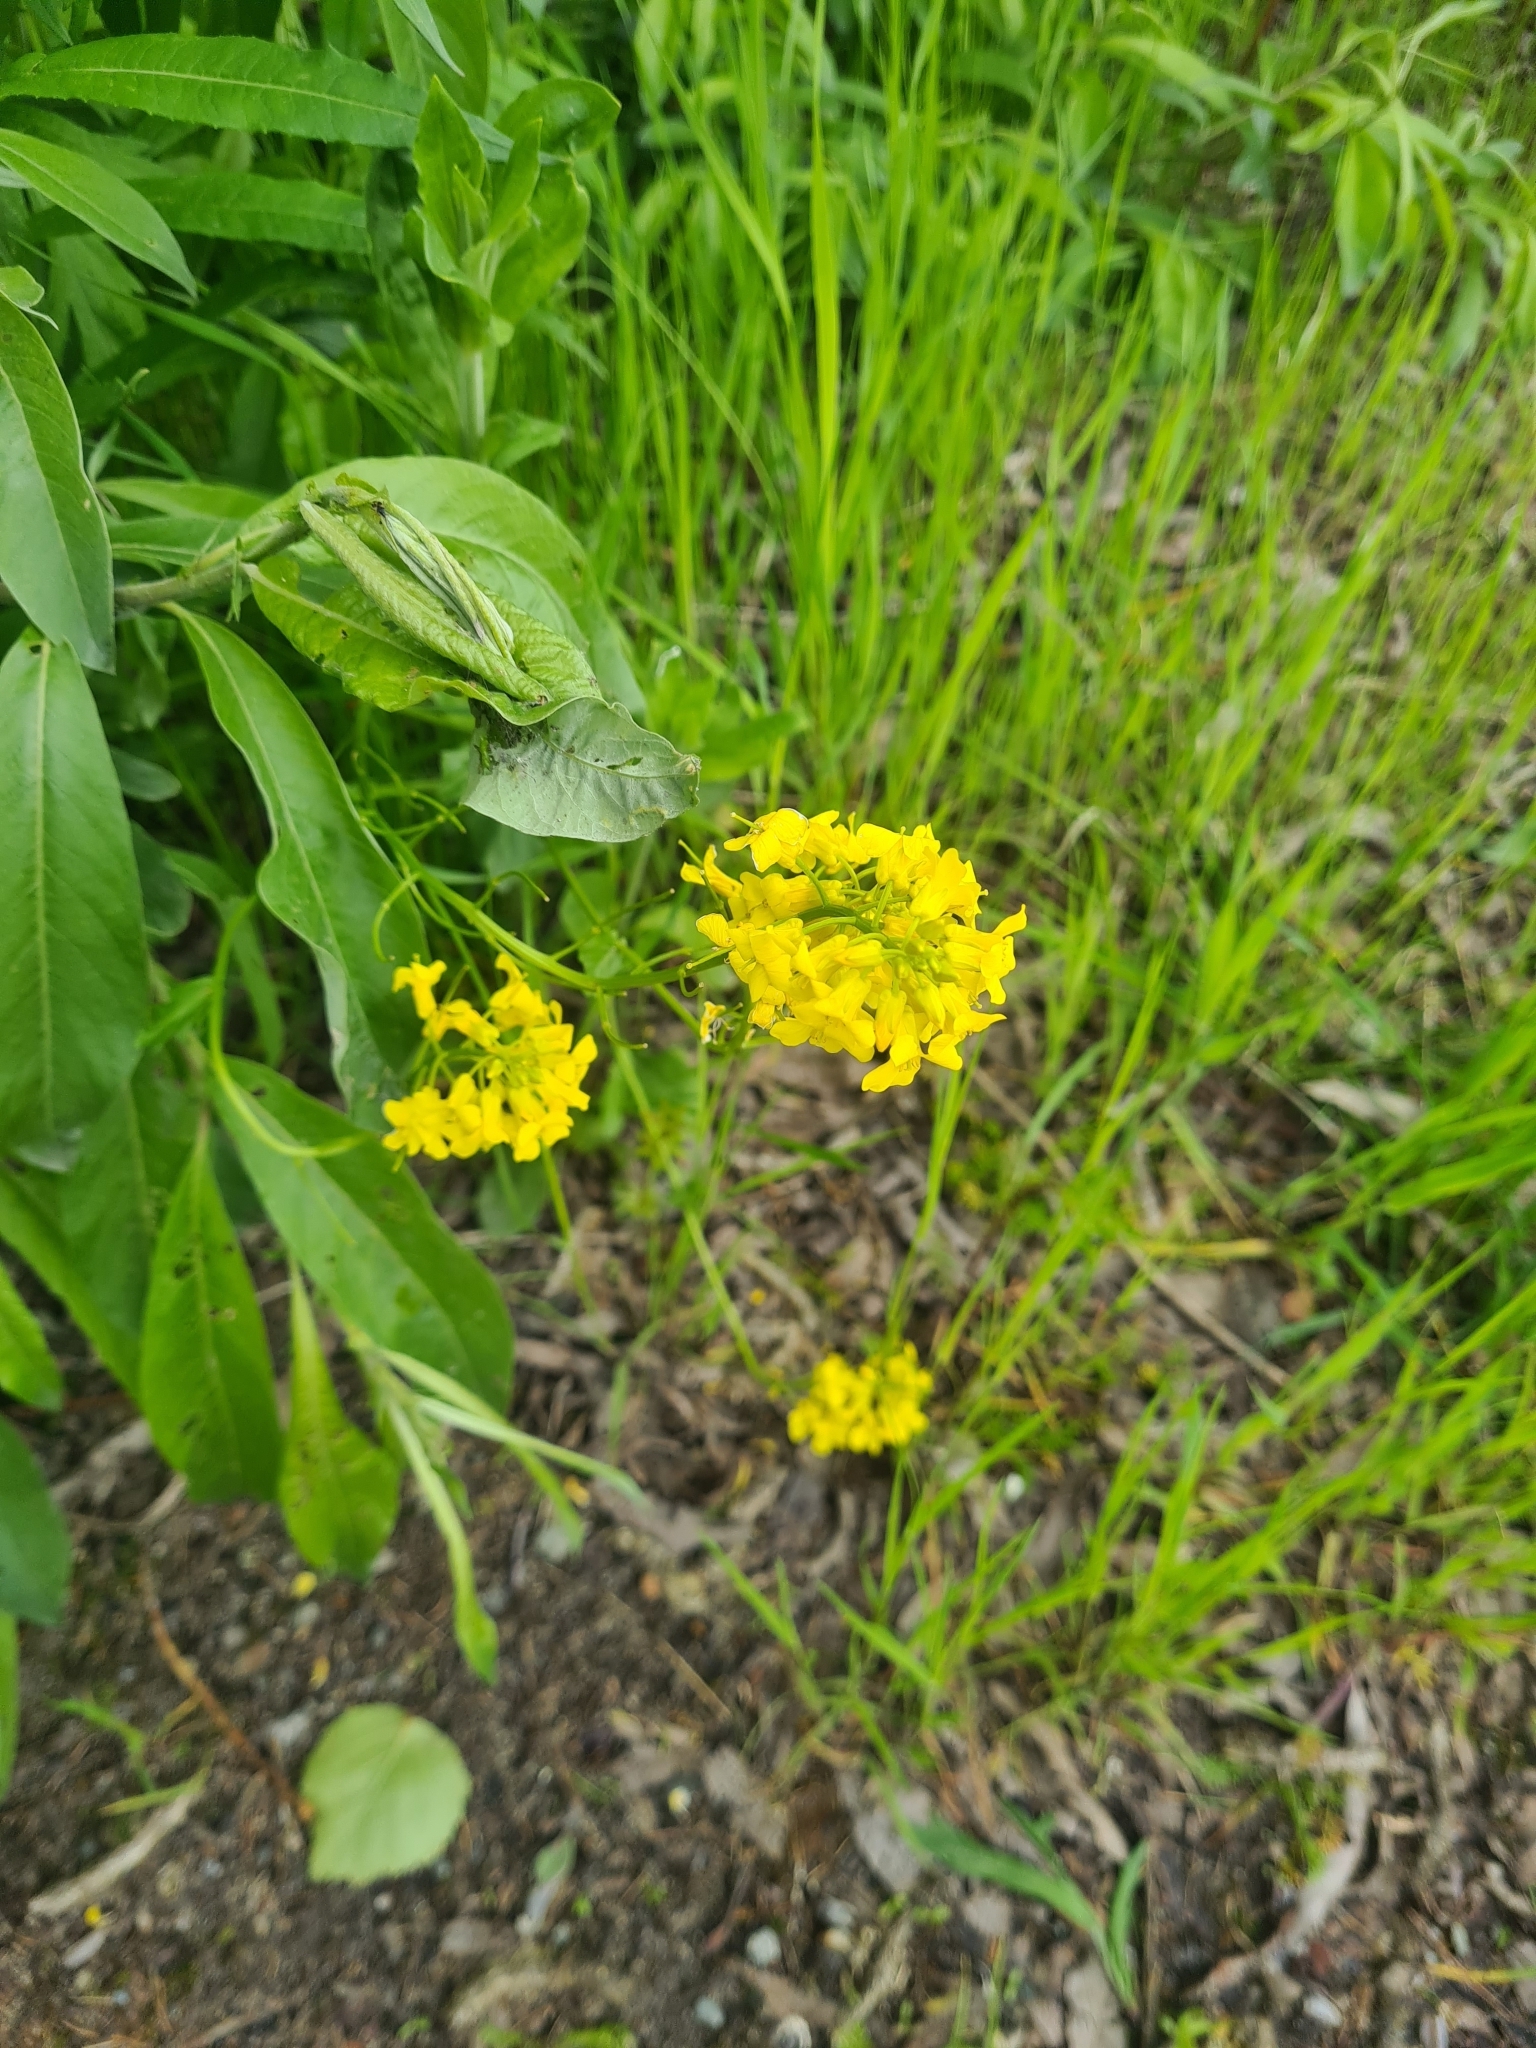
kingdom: Plantae
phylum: Tracheophyta
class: Magnoliopsida
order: Brassicales
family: Brassicaceae
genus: Barbarea
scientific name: Barbarea vulgaris
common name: Cressy-greens
